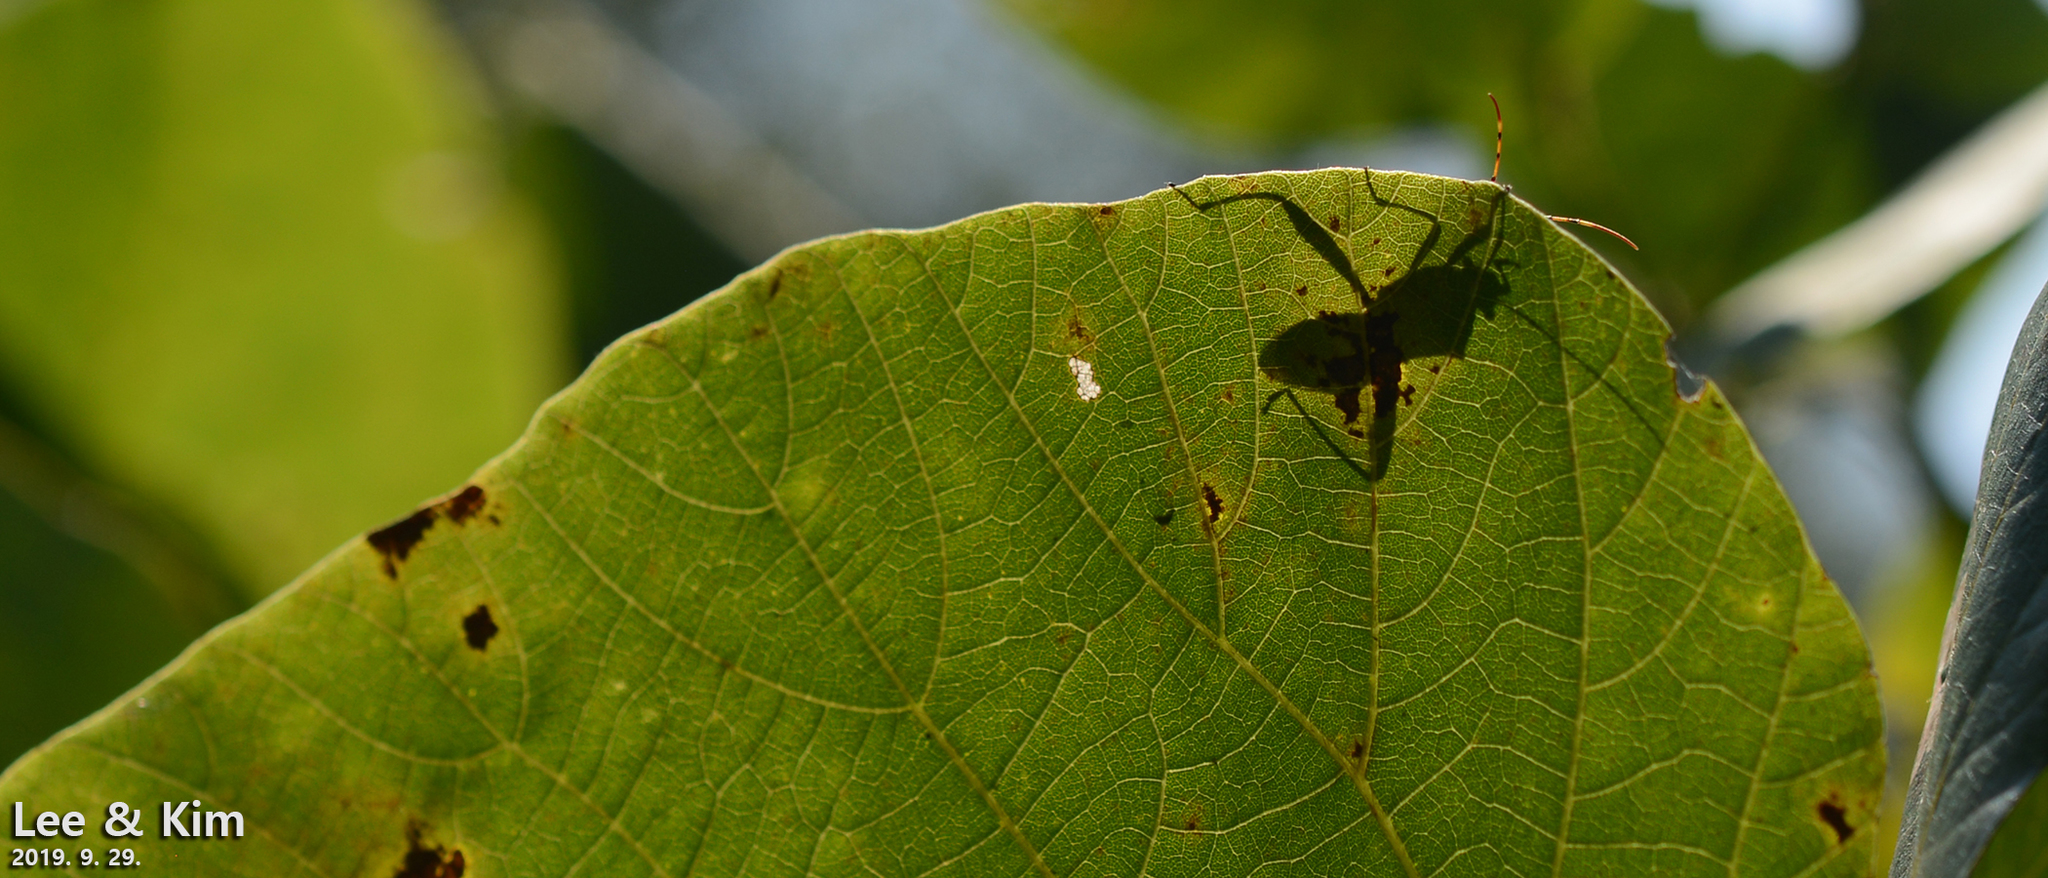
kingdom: Animalia
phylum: Arthropoda
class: Insecta
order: Hemiptera
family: Alydidae
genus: Riptortus
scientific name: Riptortus pedestris
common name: Bean bug
